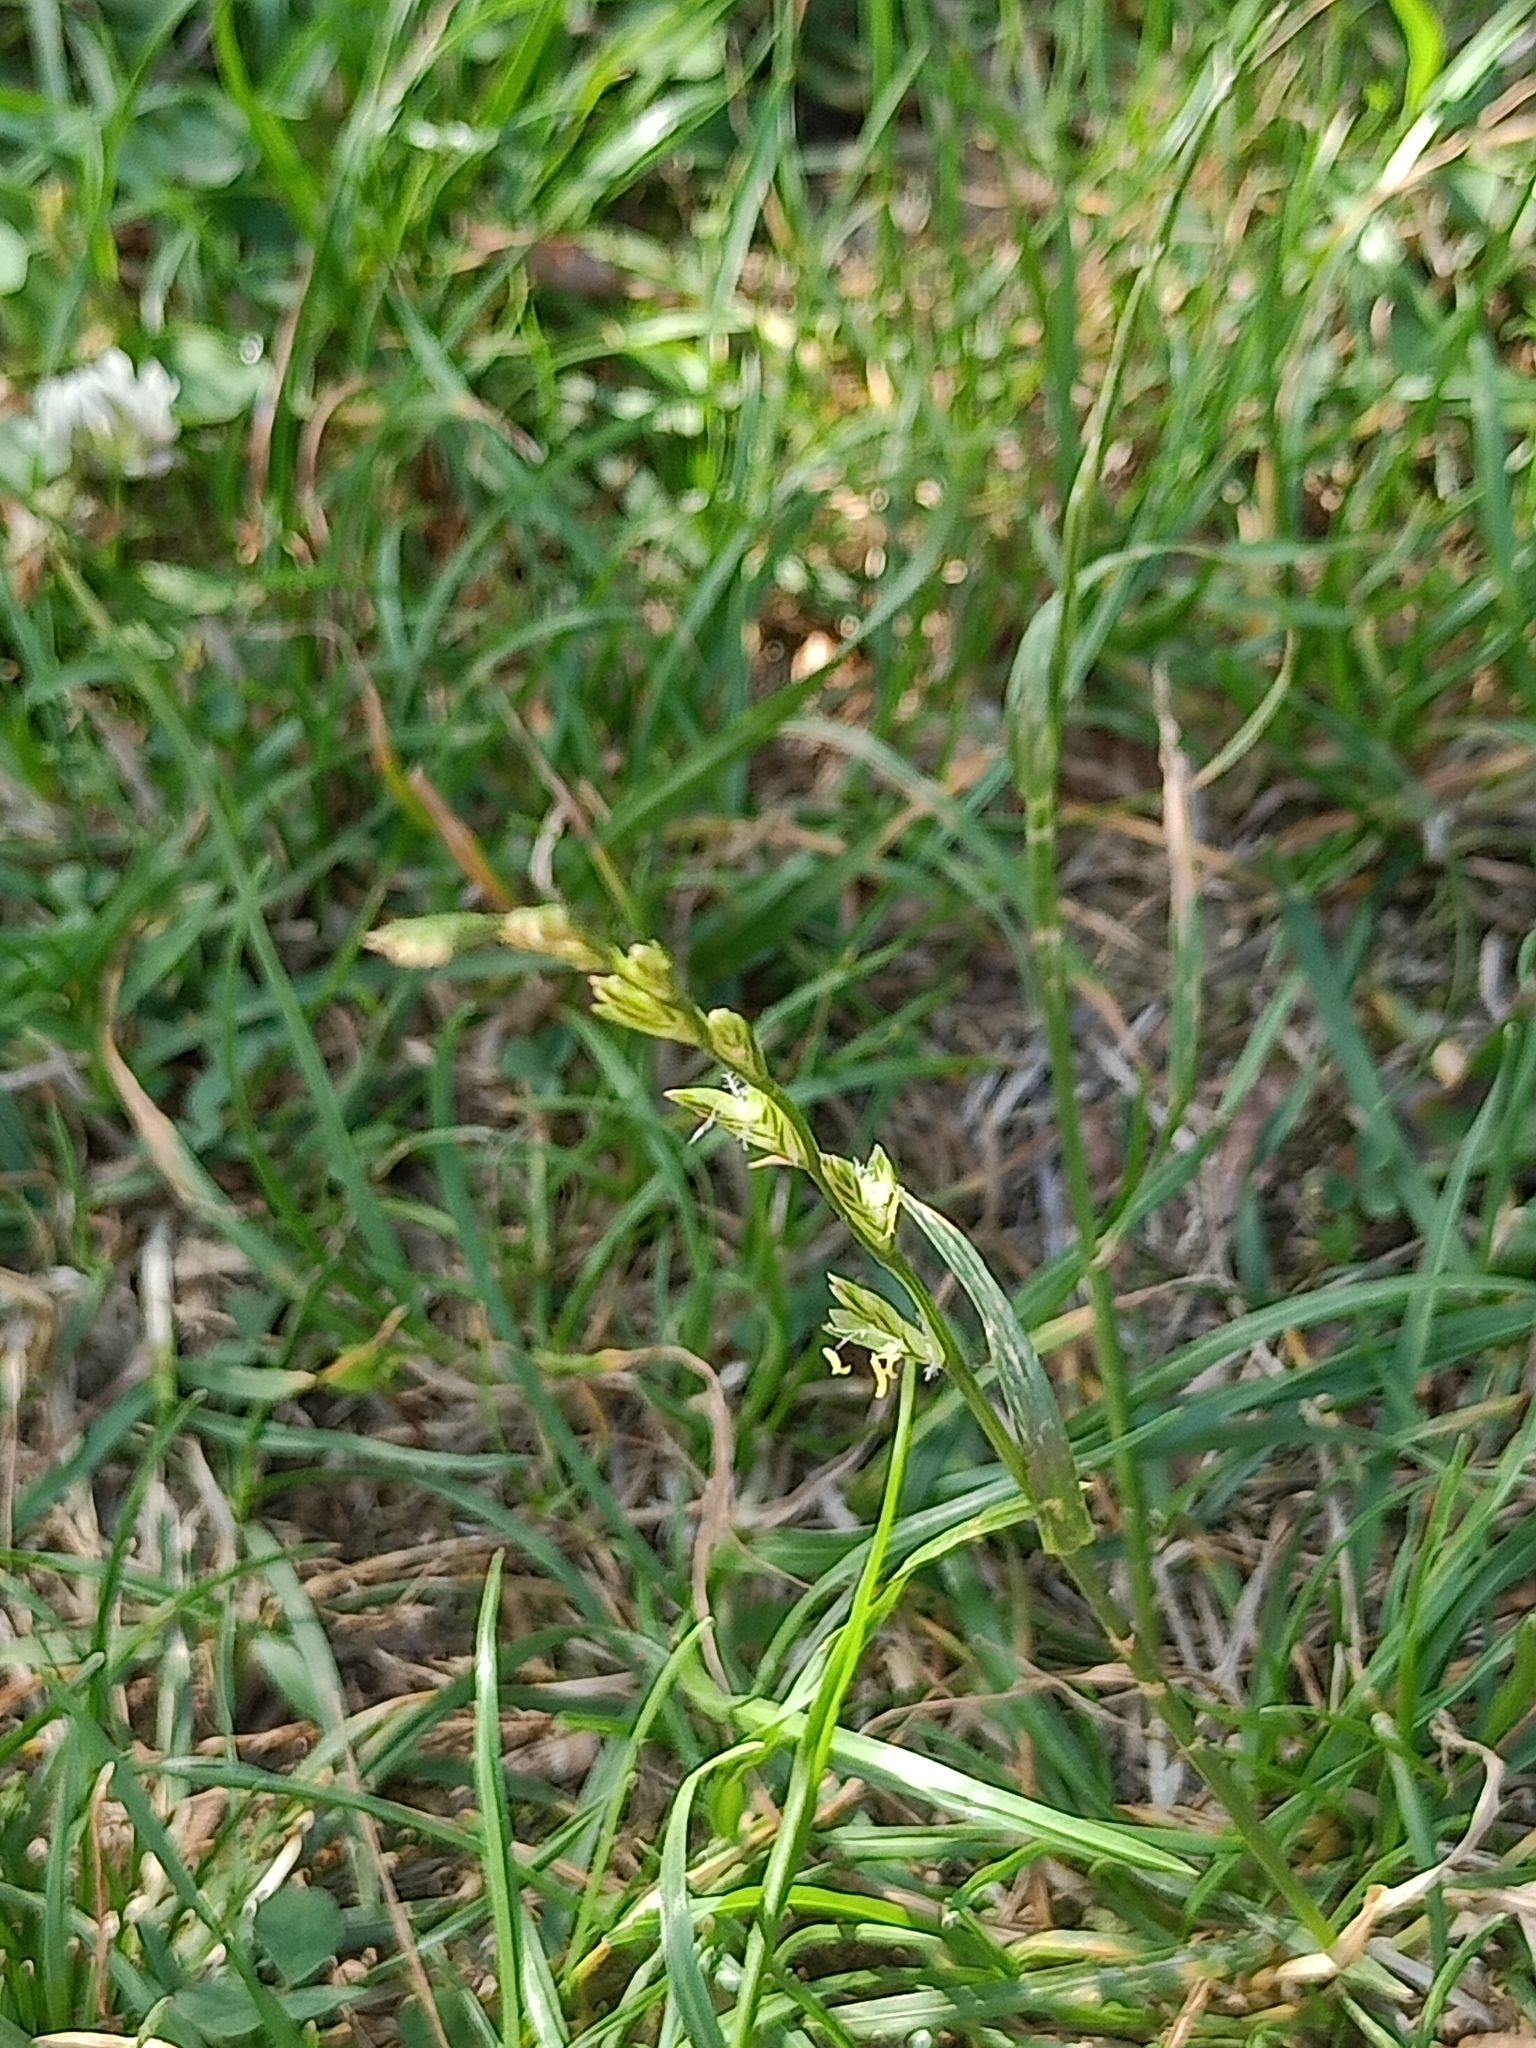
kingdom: Plantae
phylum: Tracheophyta
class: Liliopsida
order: Poales
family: Poaceae
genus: Lolium
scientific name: Lolium perenne
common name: Perennial ryegrass
